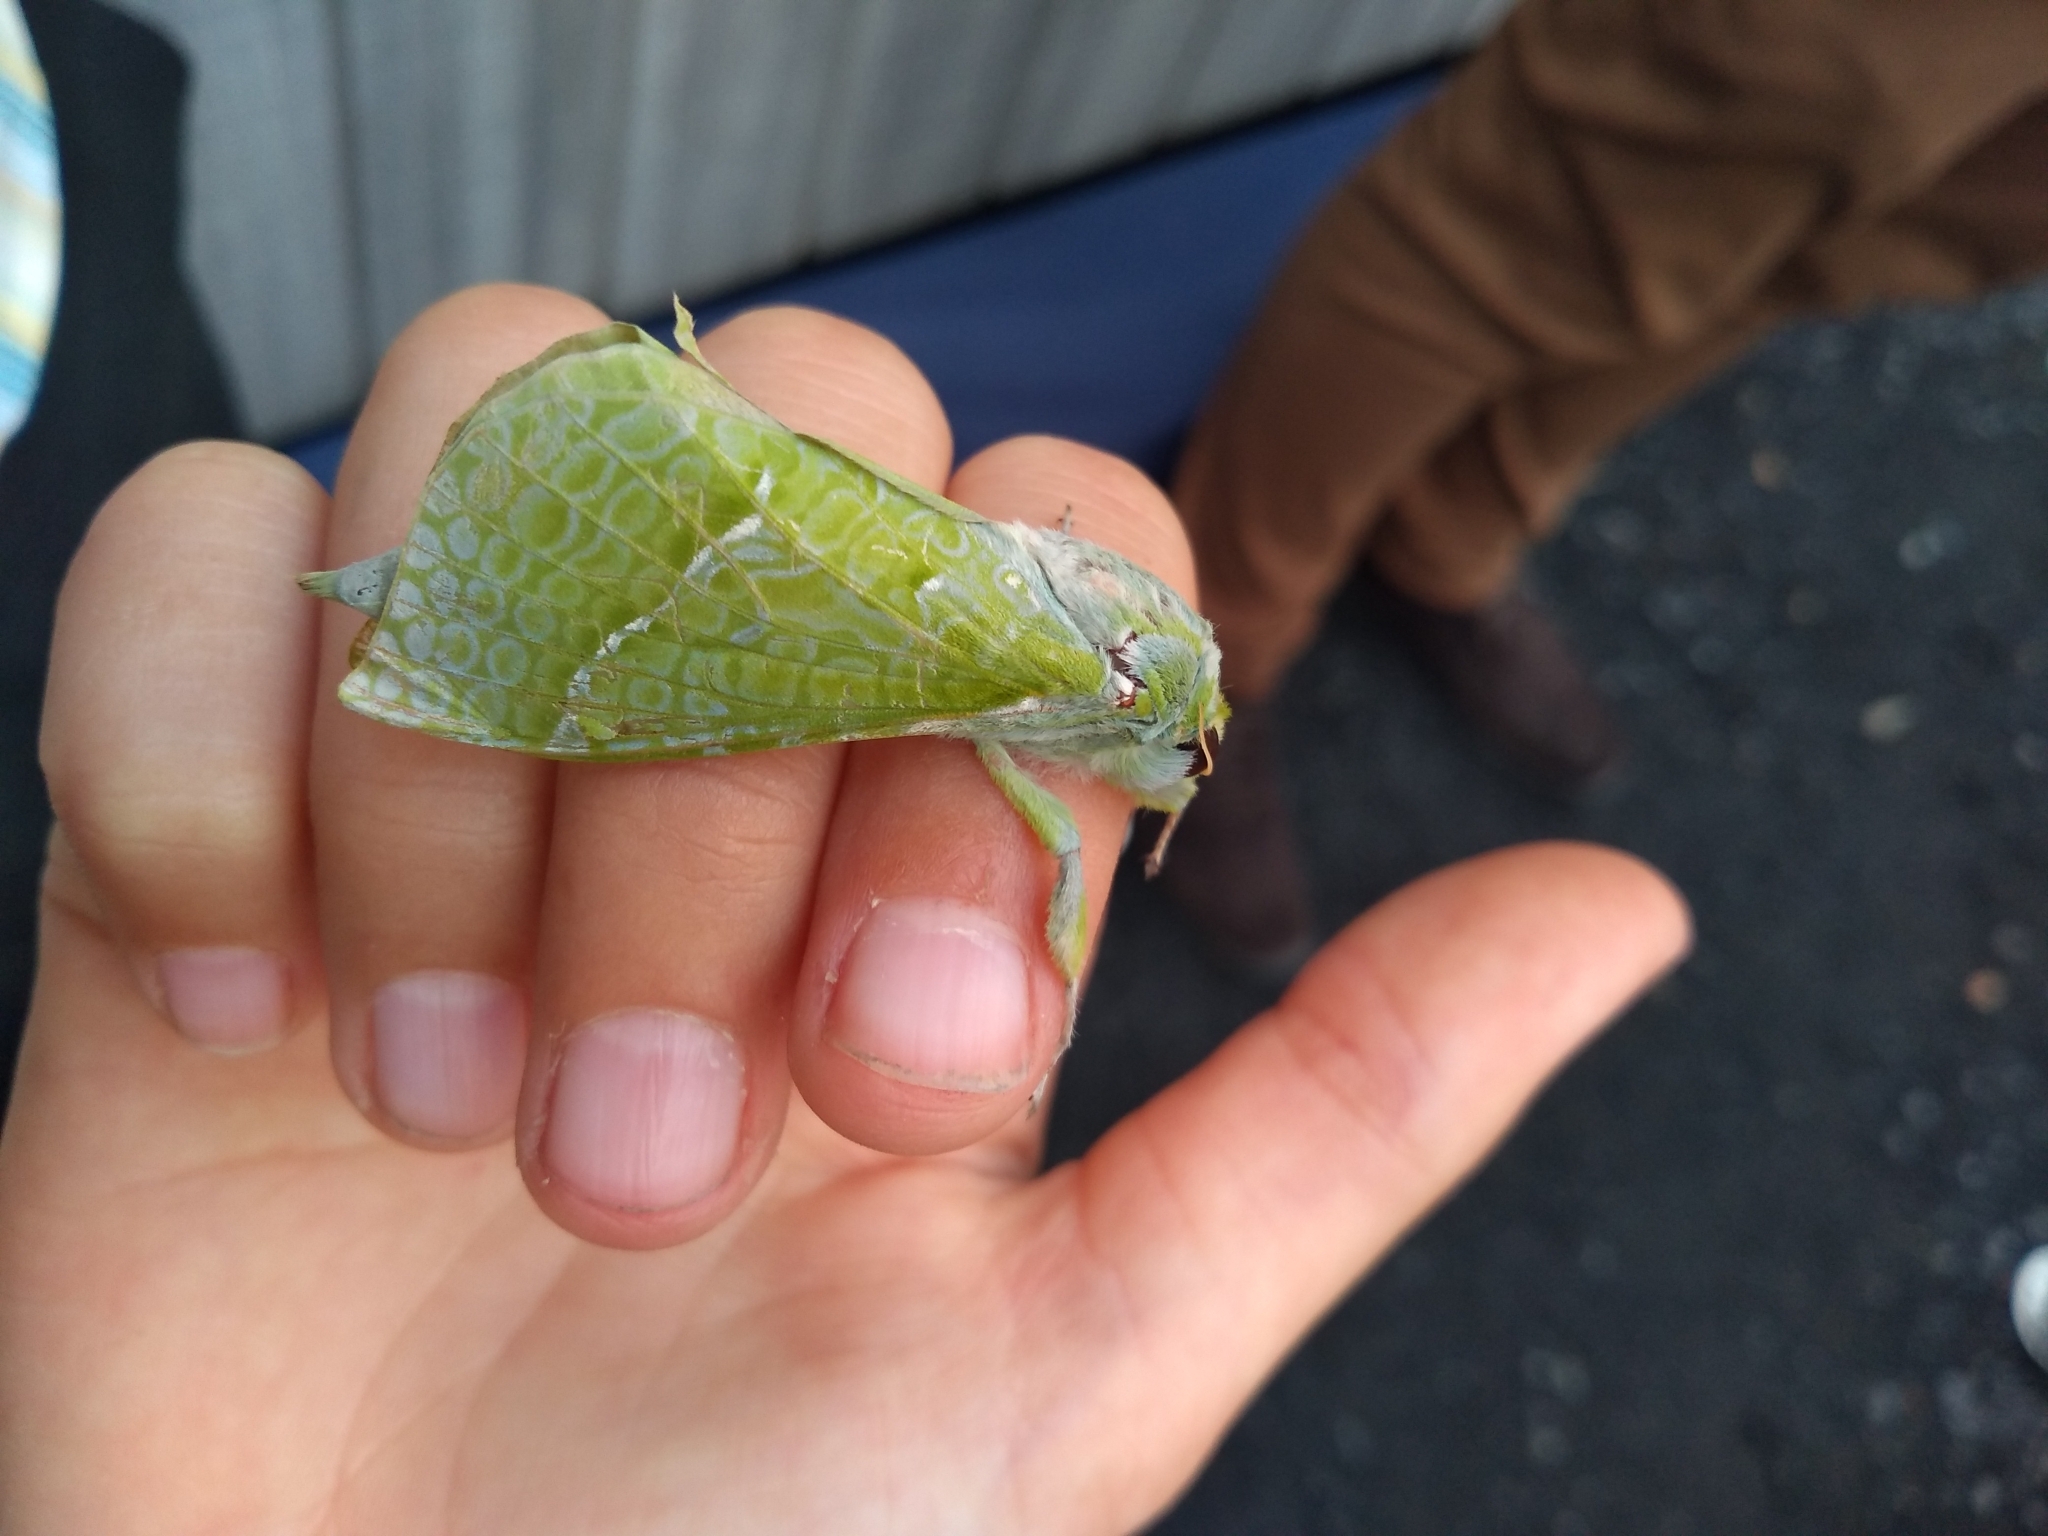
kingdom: Animalia
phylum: Arthropoda
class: Insecta
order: Lepidoptera
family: Hepialidae
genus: Aenetus
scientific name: Aenetus virescens
